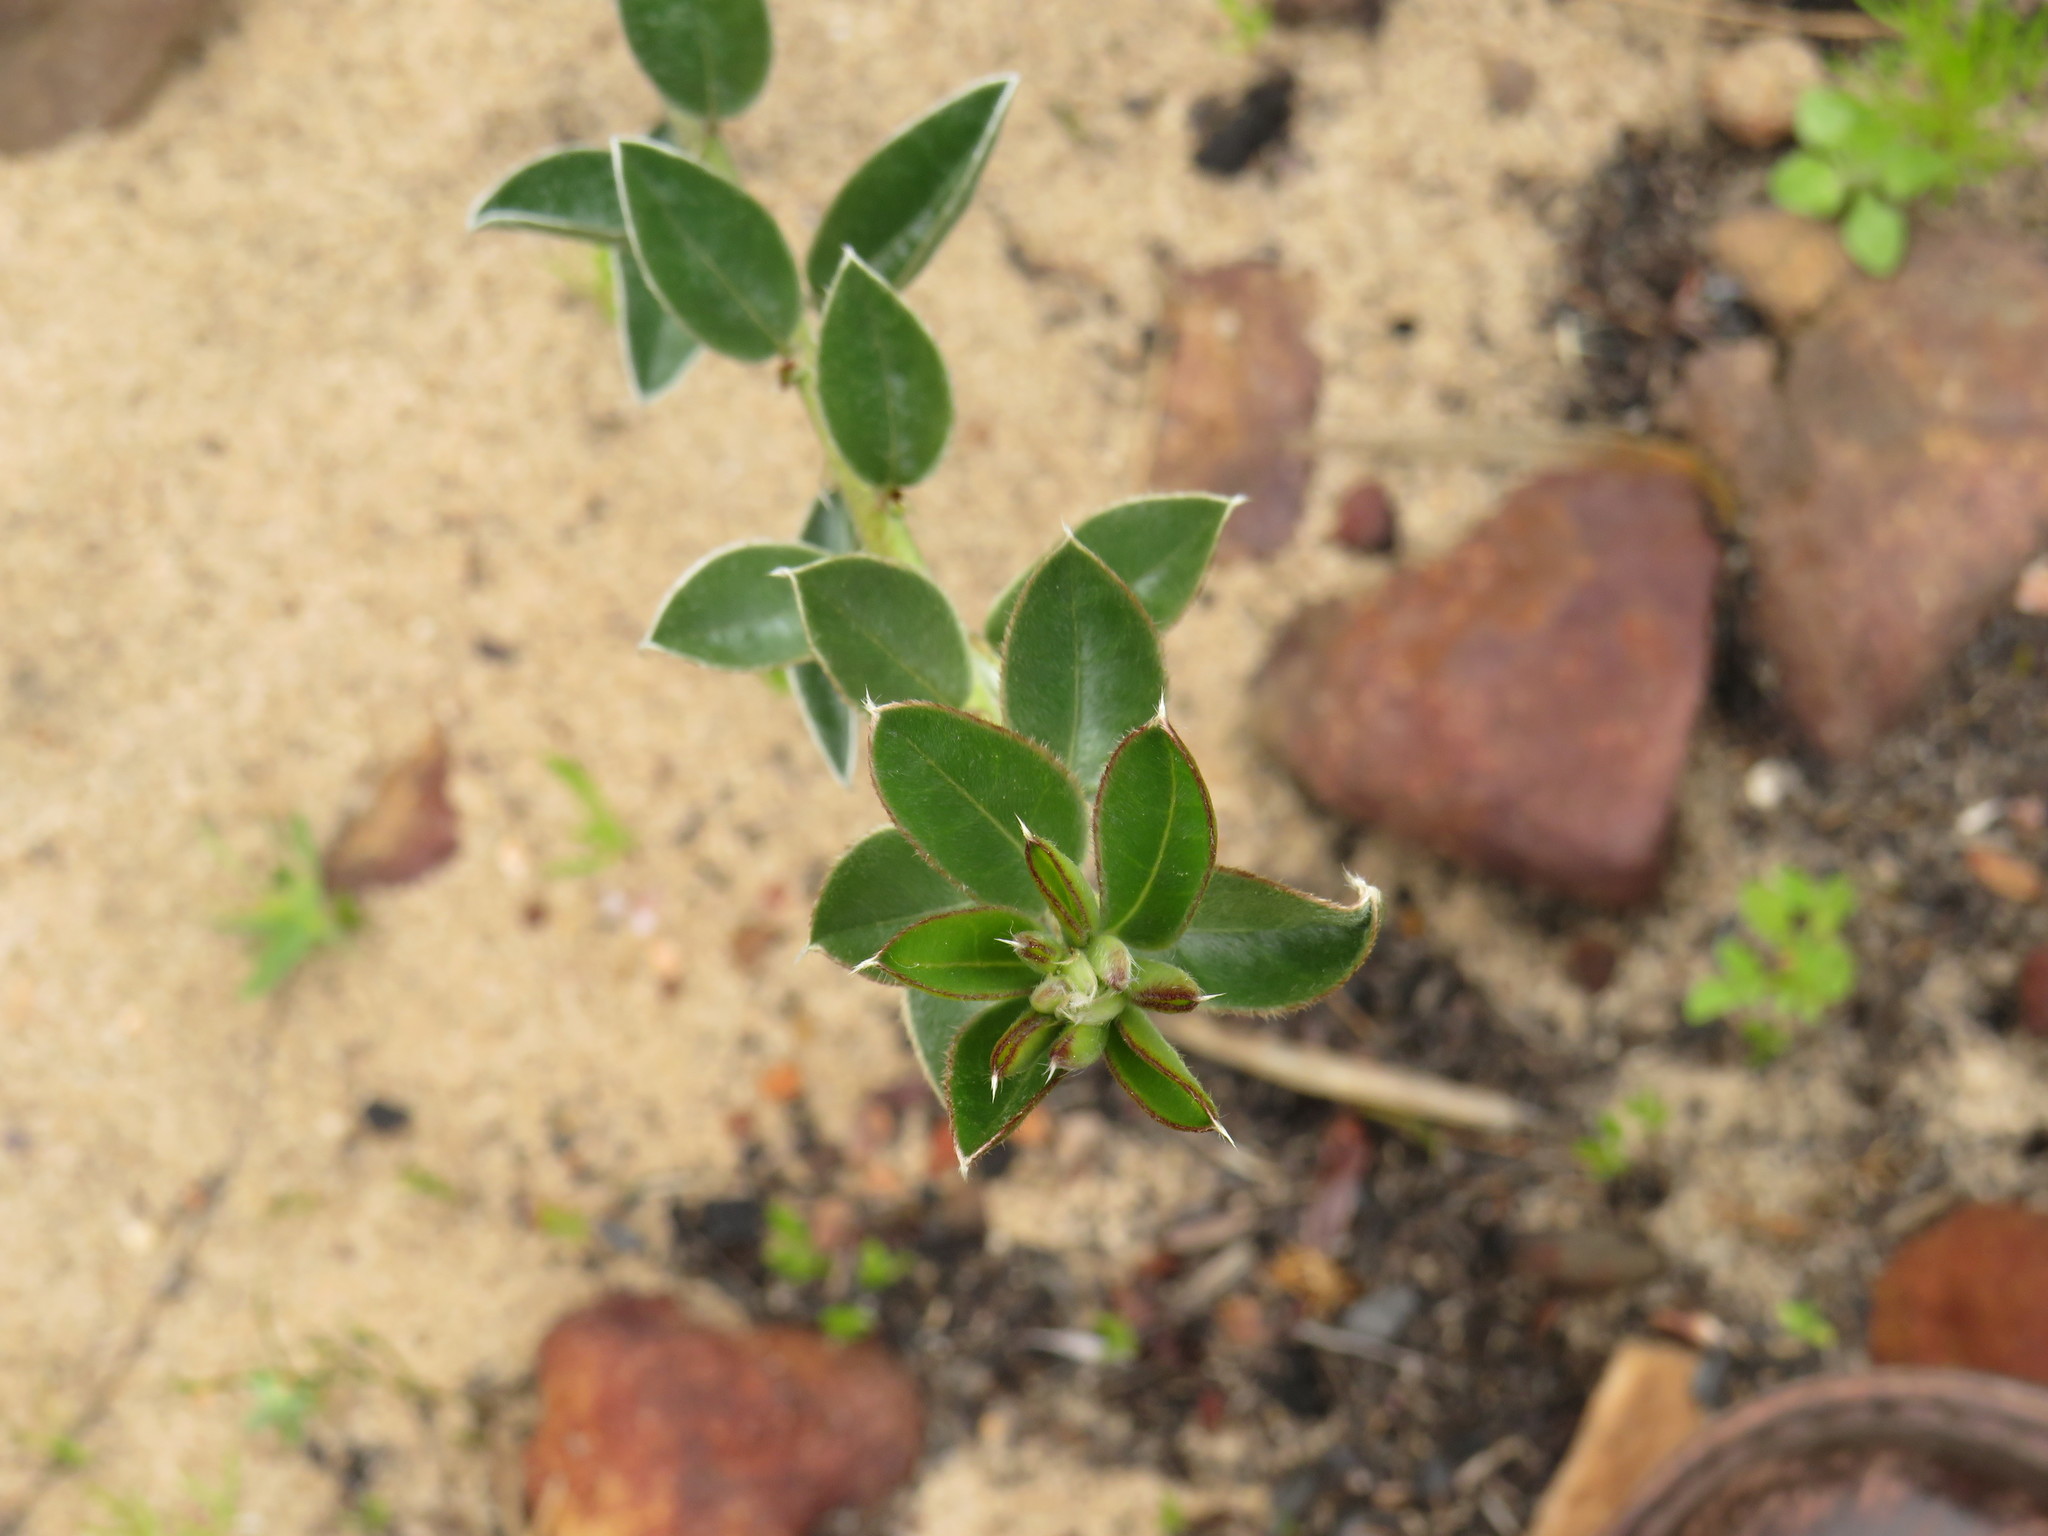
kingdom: Plantae
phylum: Tracheophyta
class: Magnoliopsida
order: Fabales
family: Fabaceae
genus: Podalyria
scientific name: Podalyria biflora
